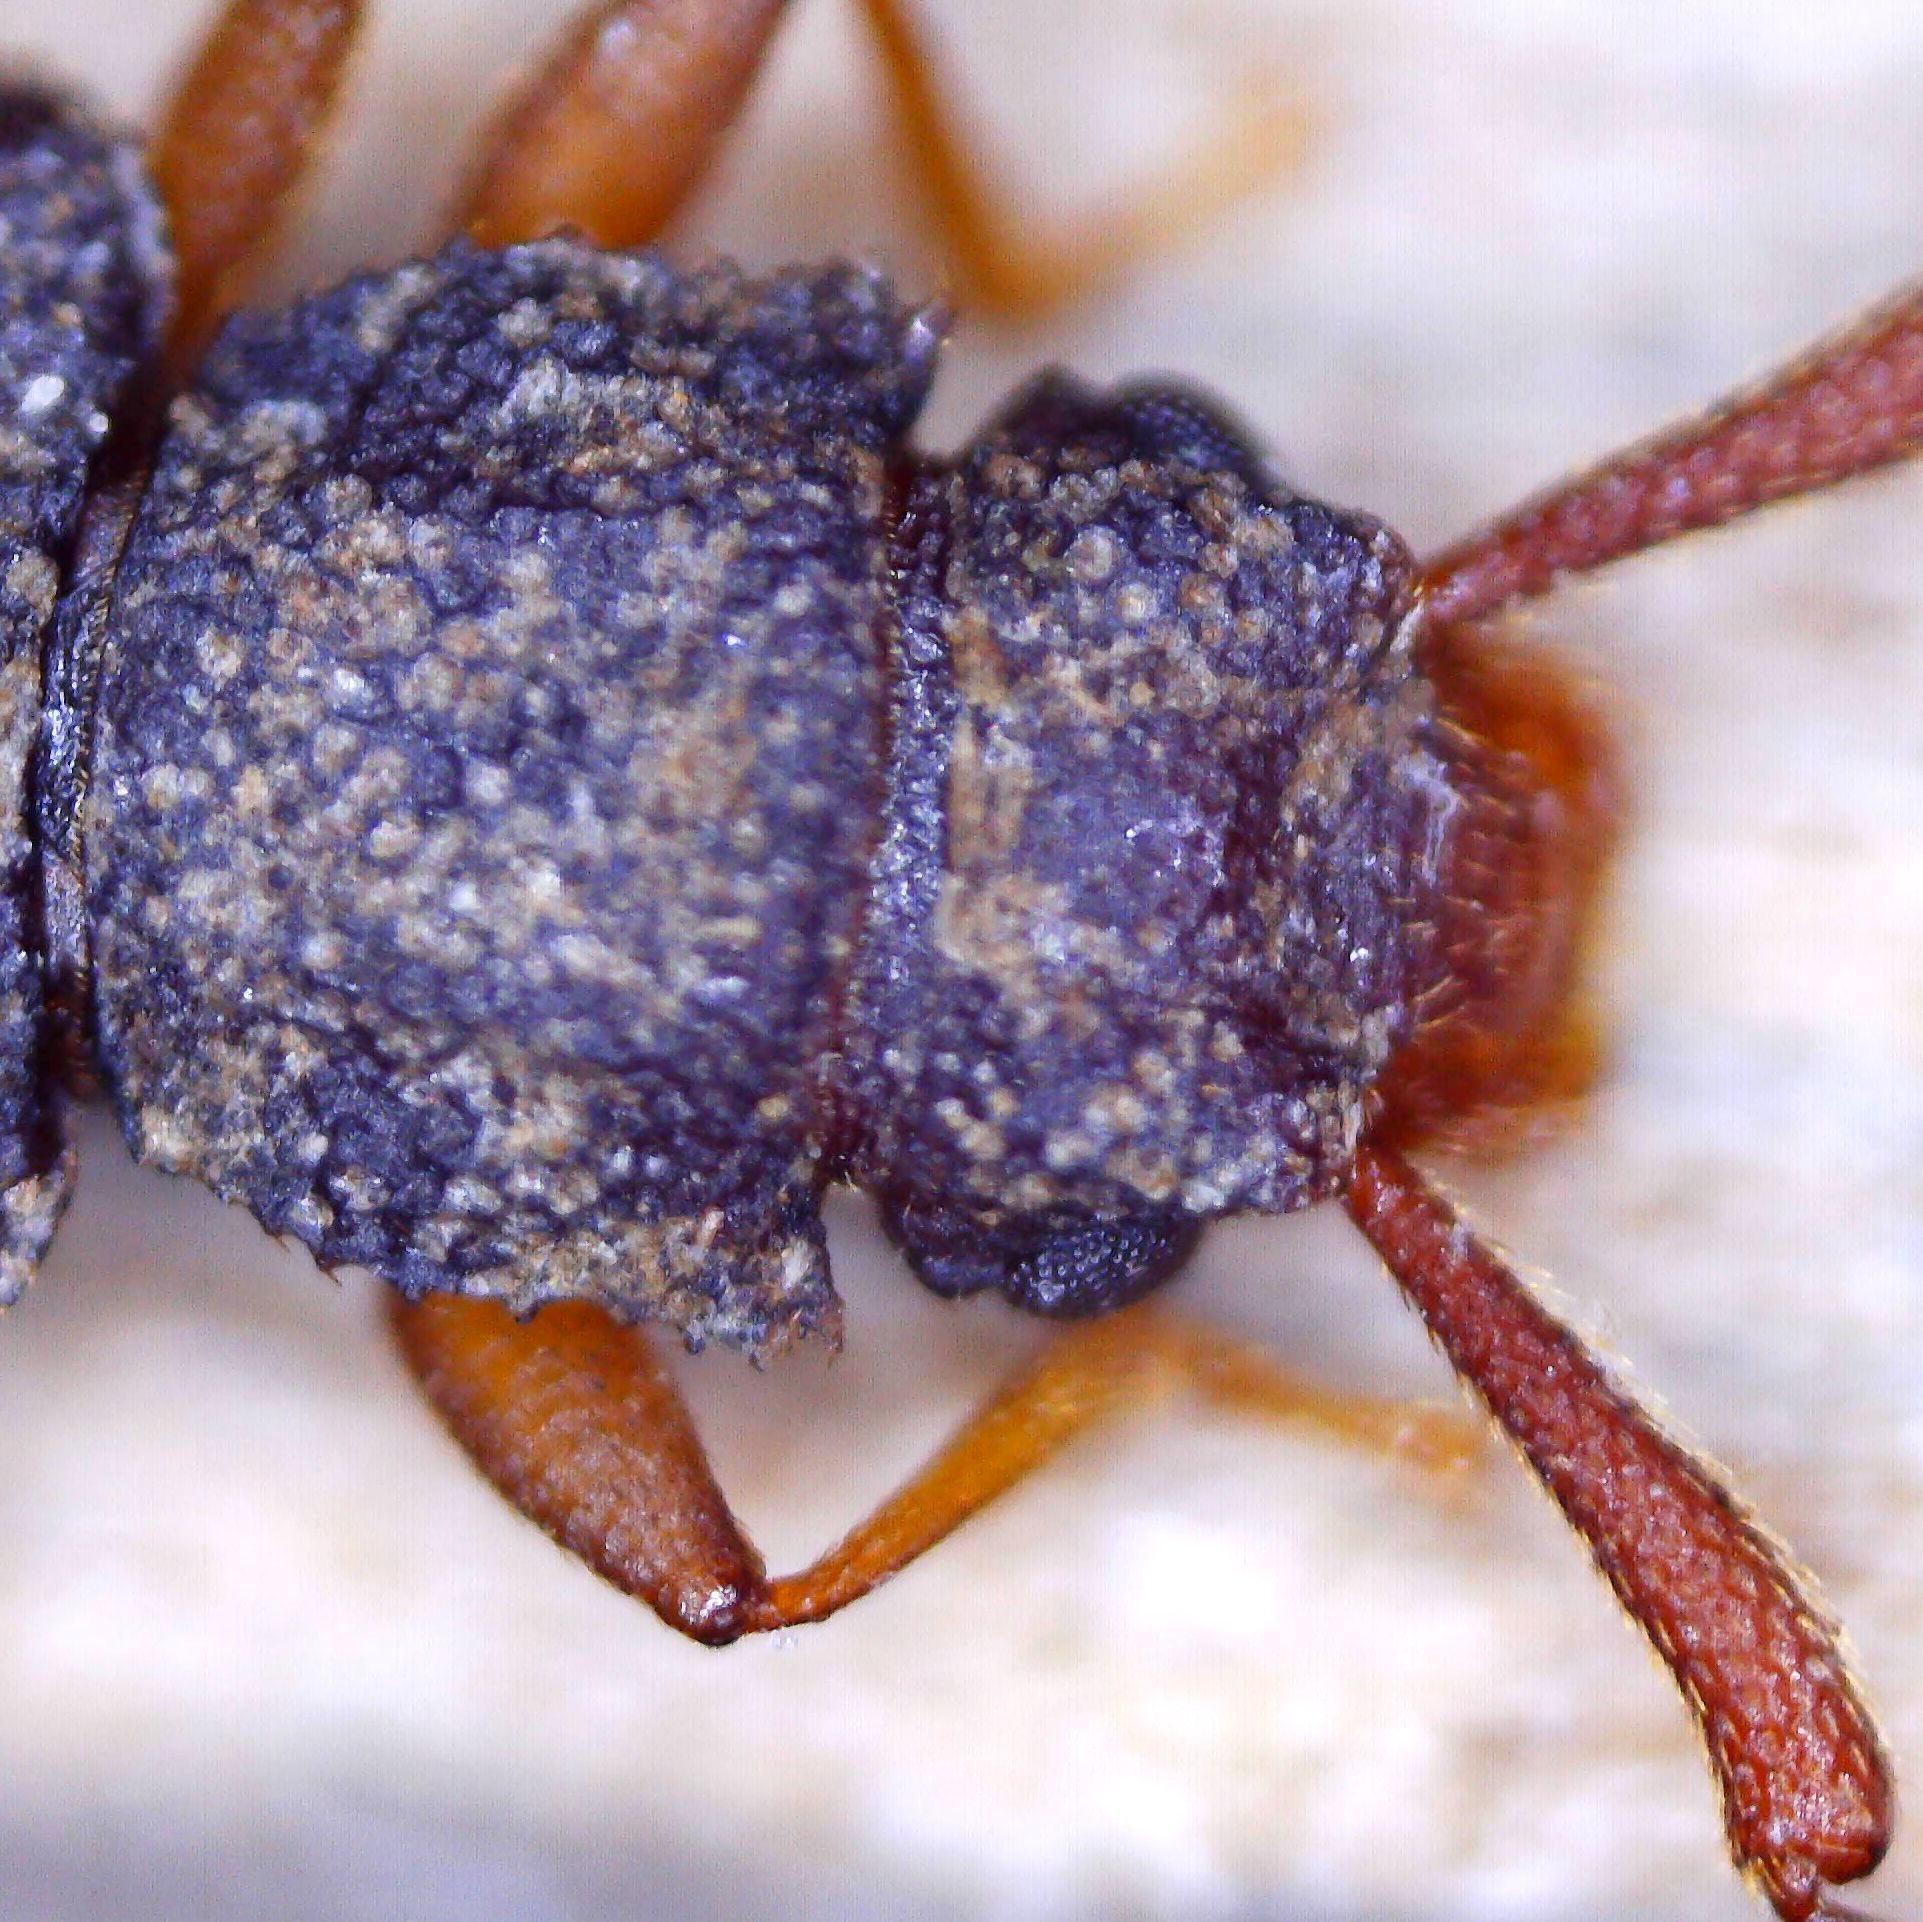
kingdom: Animalia
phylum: Arthropoda
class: Insecta
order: Coleoptera
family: Silvanidae
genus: Uleiota
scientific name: Uleiota planatus
